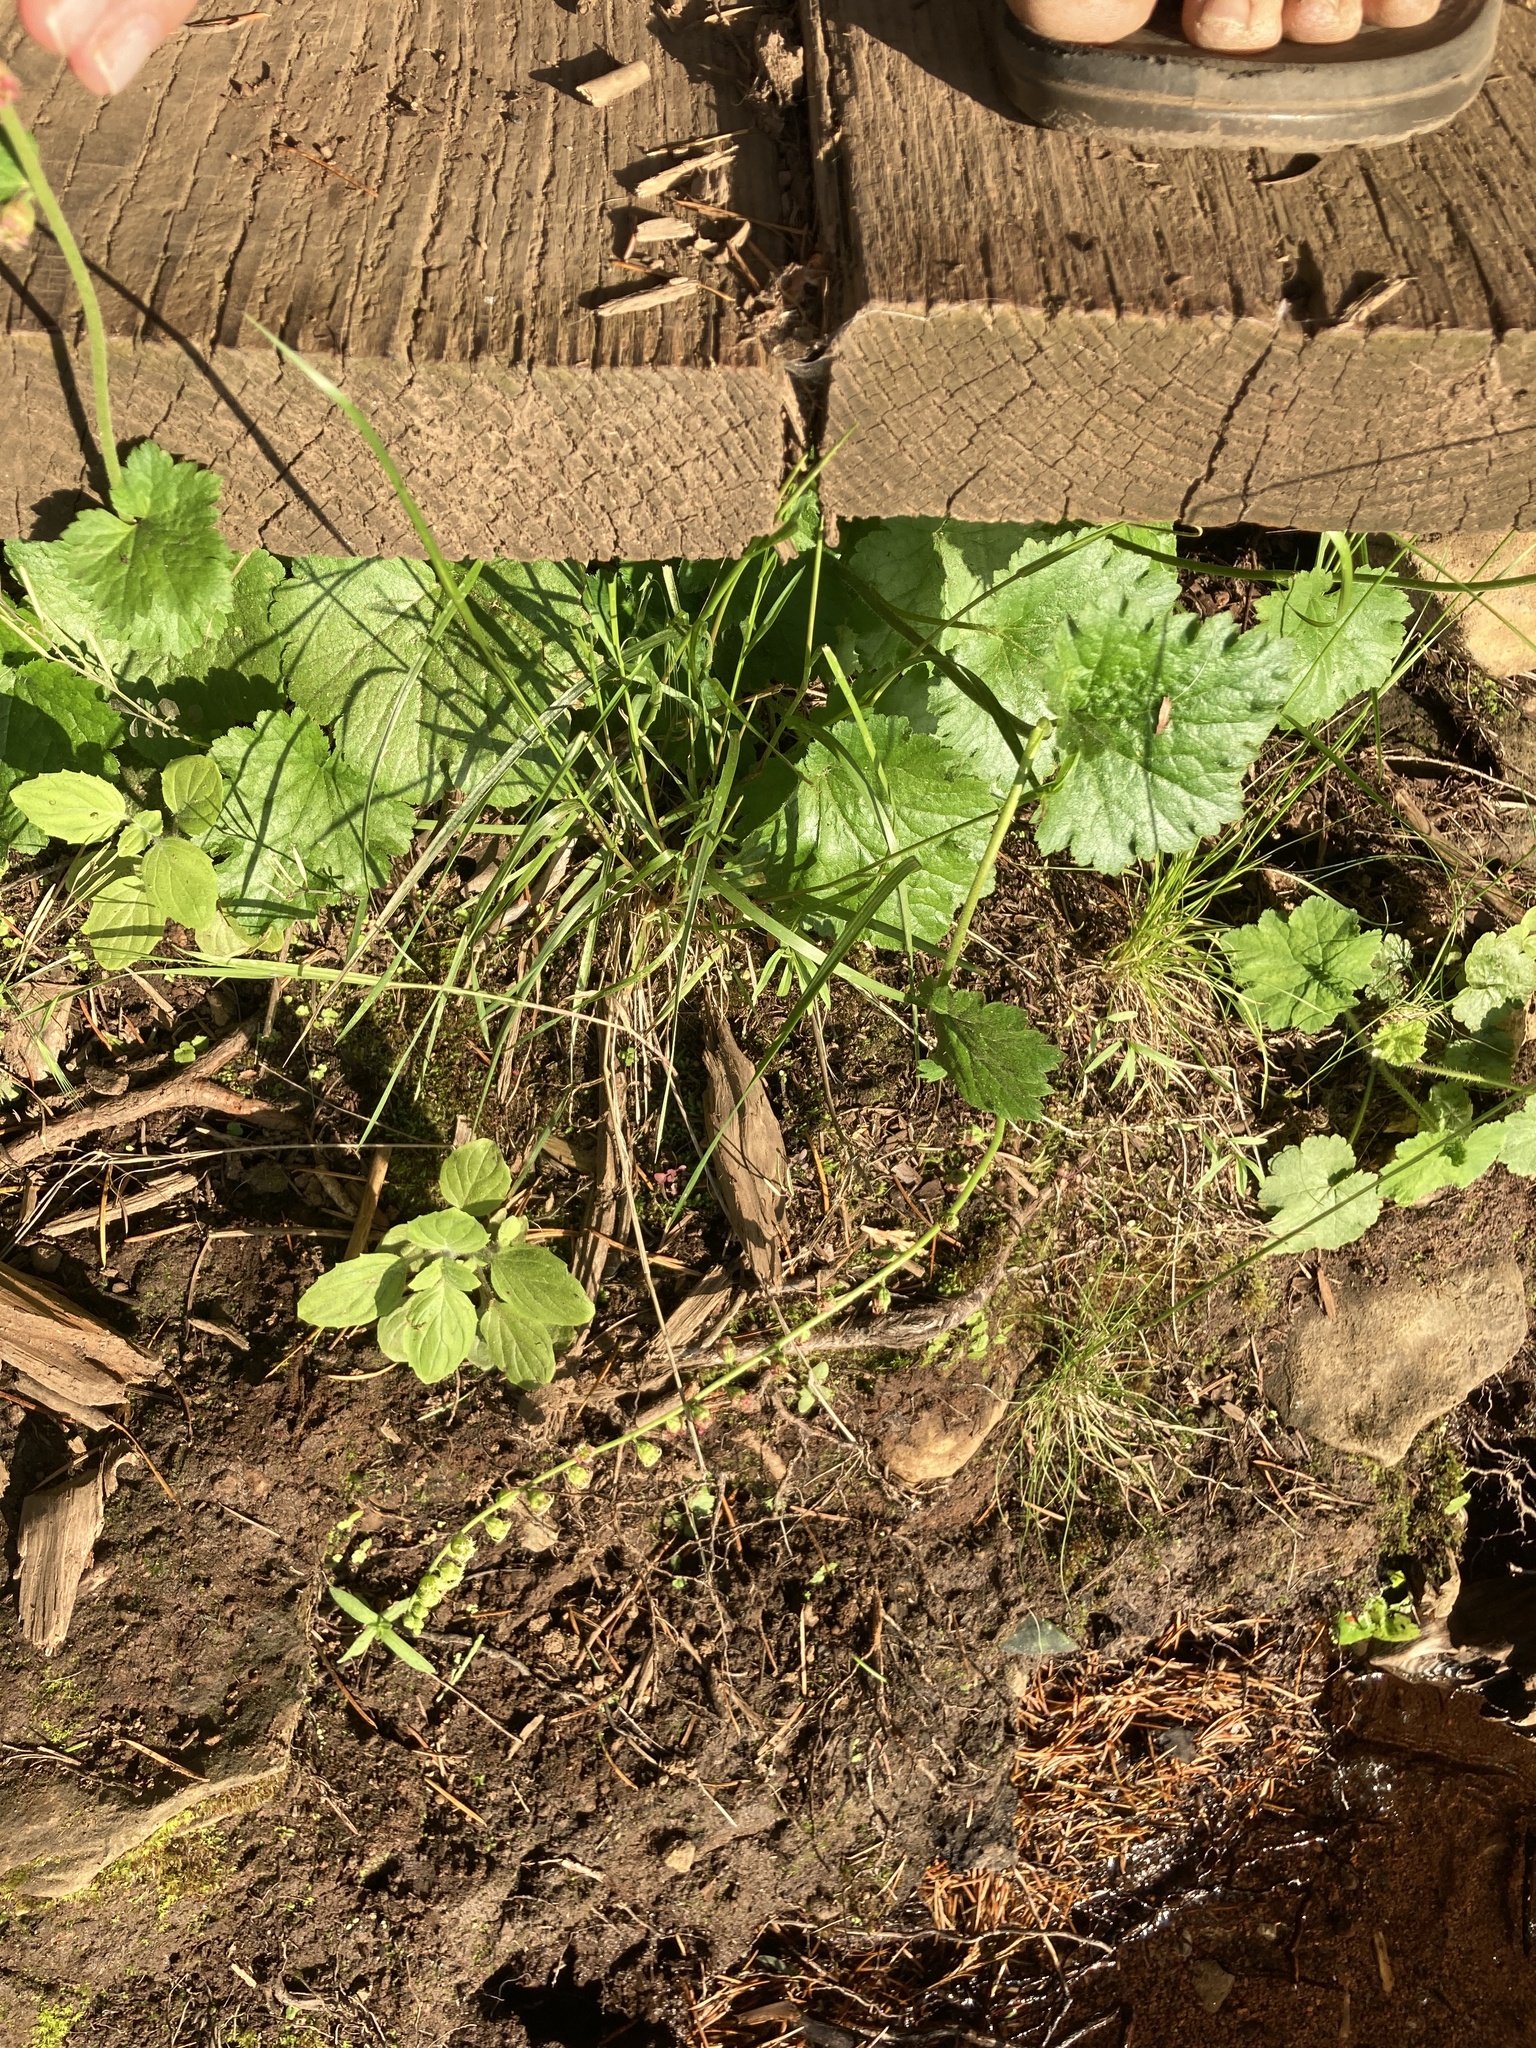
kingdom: Plantae
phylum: Tracheophyta
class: Magnoliopsida
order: Saxifragales
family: Saxifragaceae
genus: Tellima
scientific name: Tellima grandiflora
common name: Fringecups
